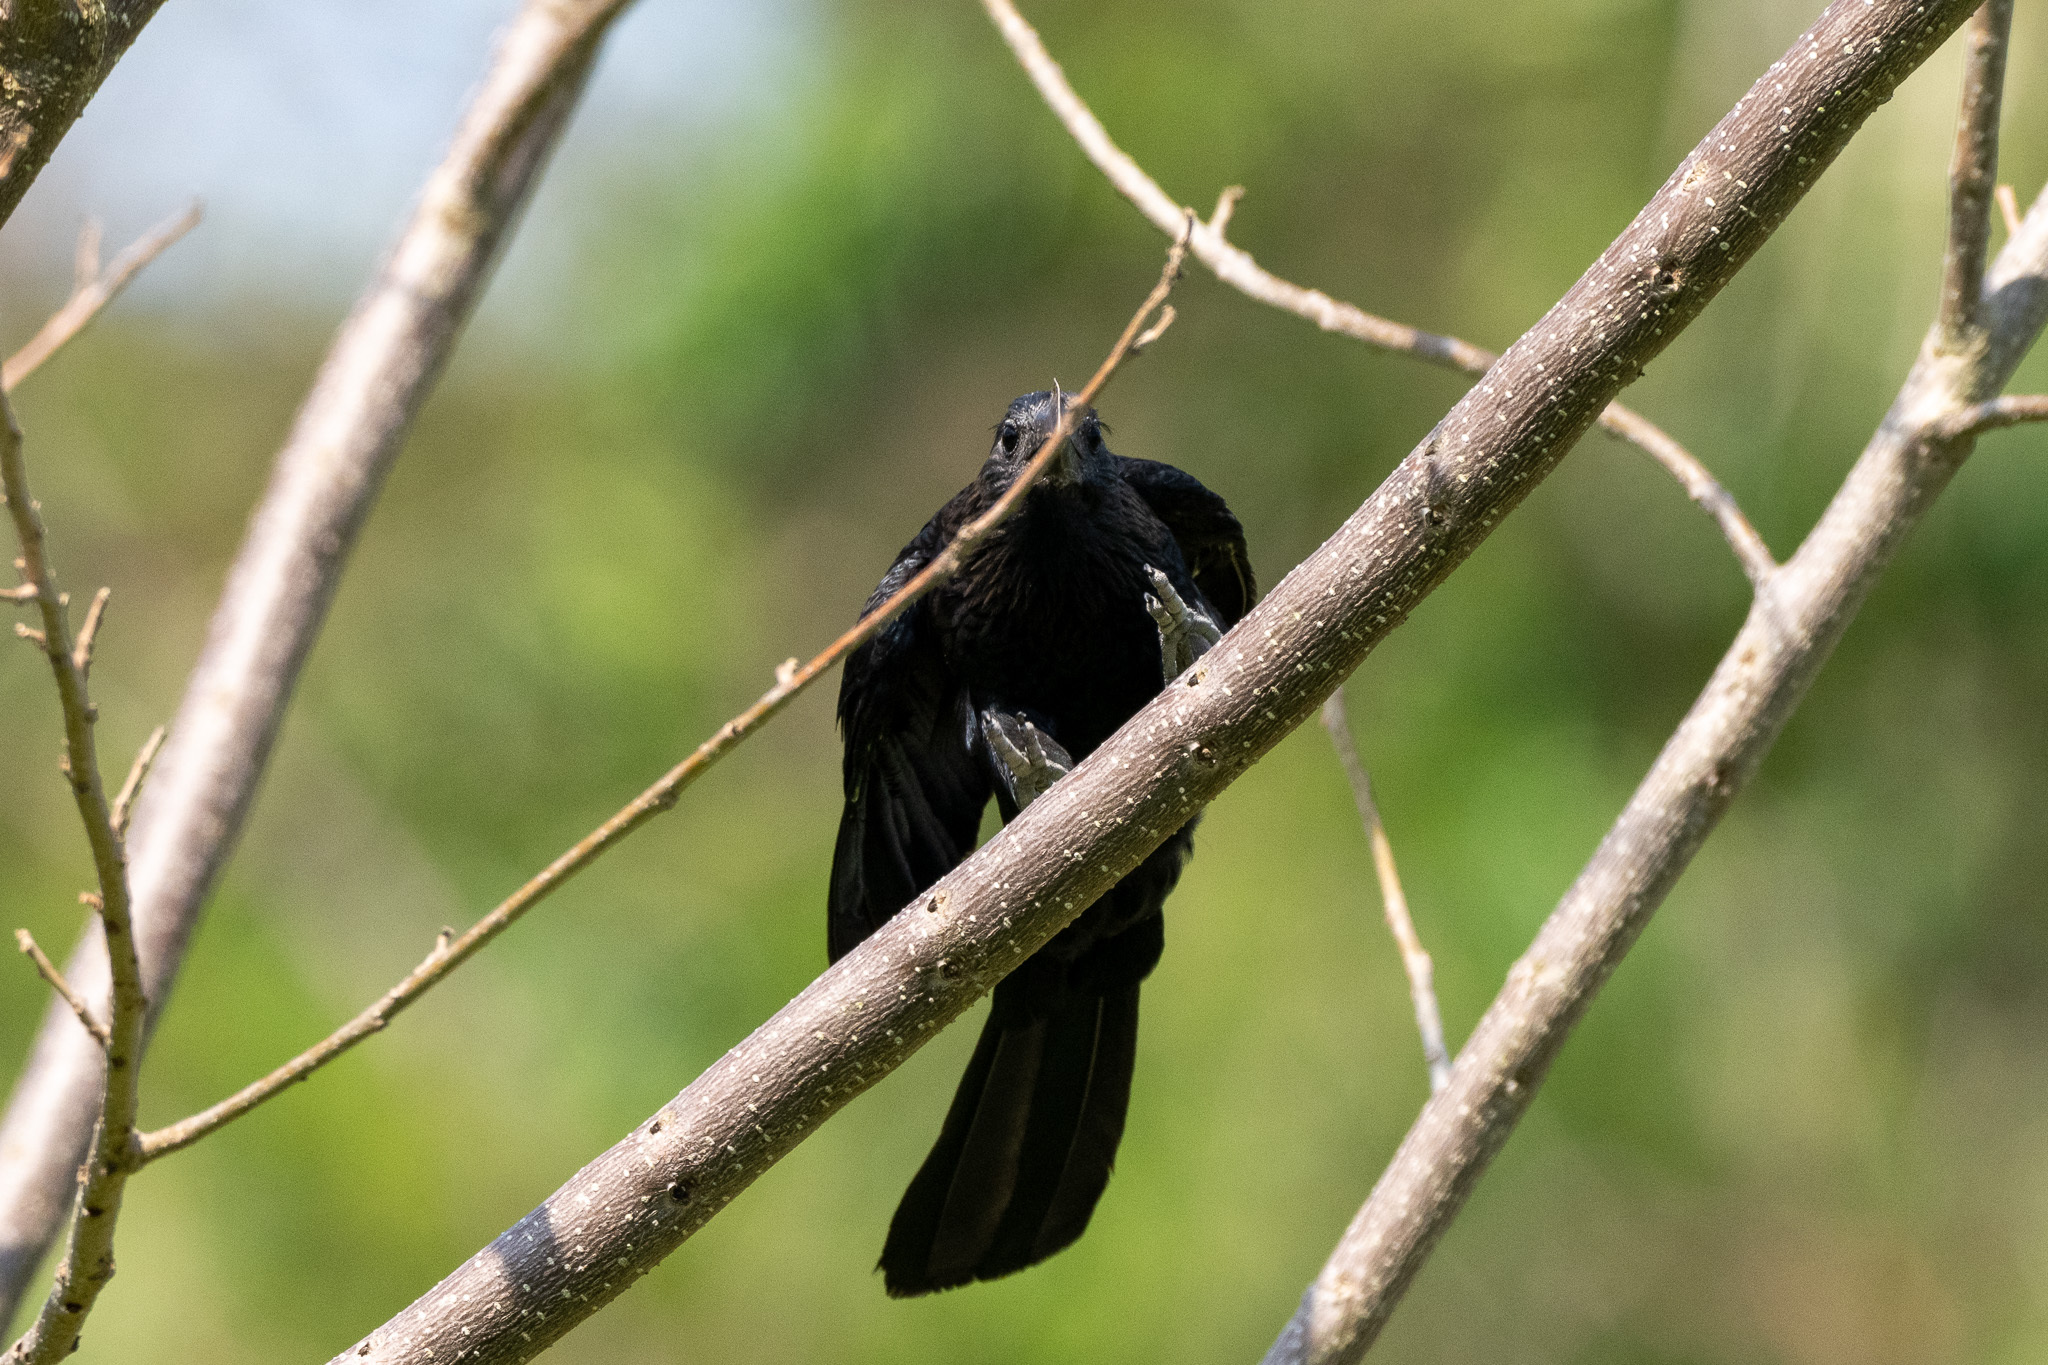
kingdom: Animalia
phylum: Chordata
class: Aves
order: Cuculiformes
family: Cuculidae
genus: Crotophaga
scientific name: Crotophaga ani
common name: Smooth-billed ani
